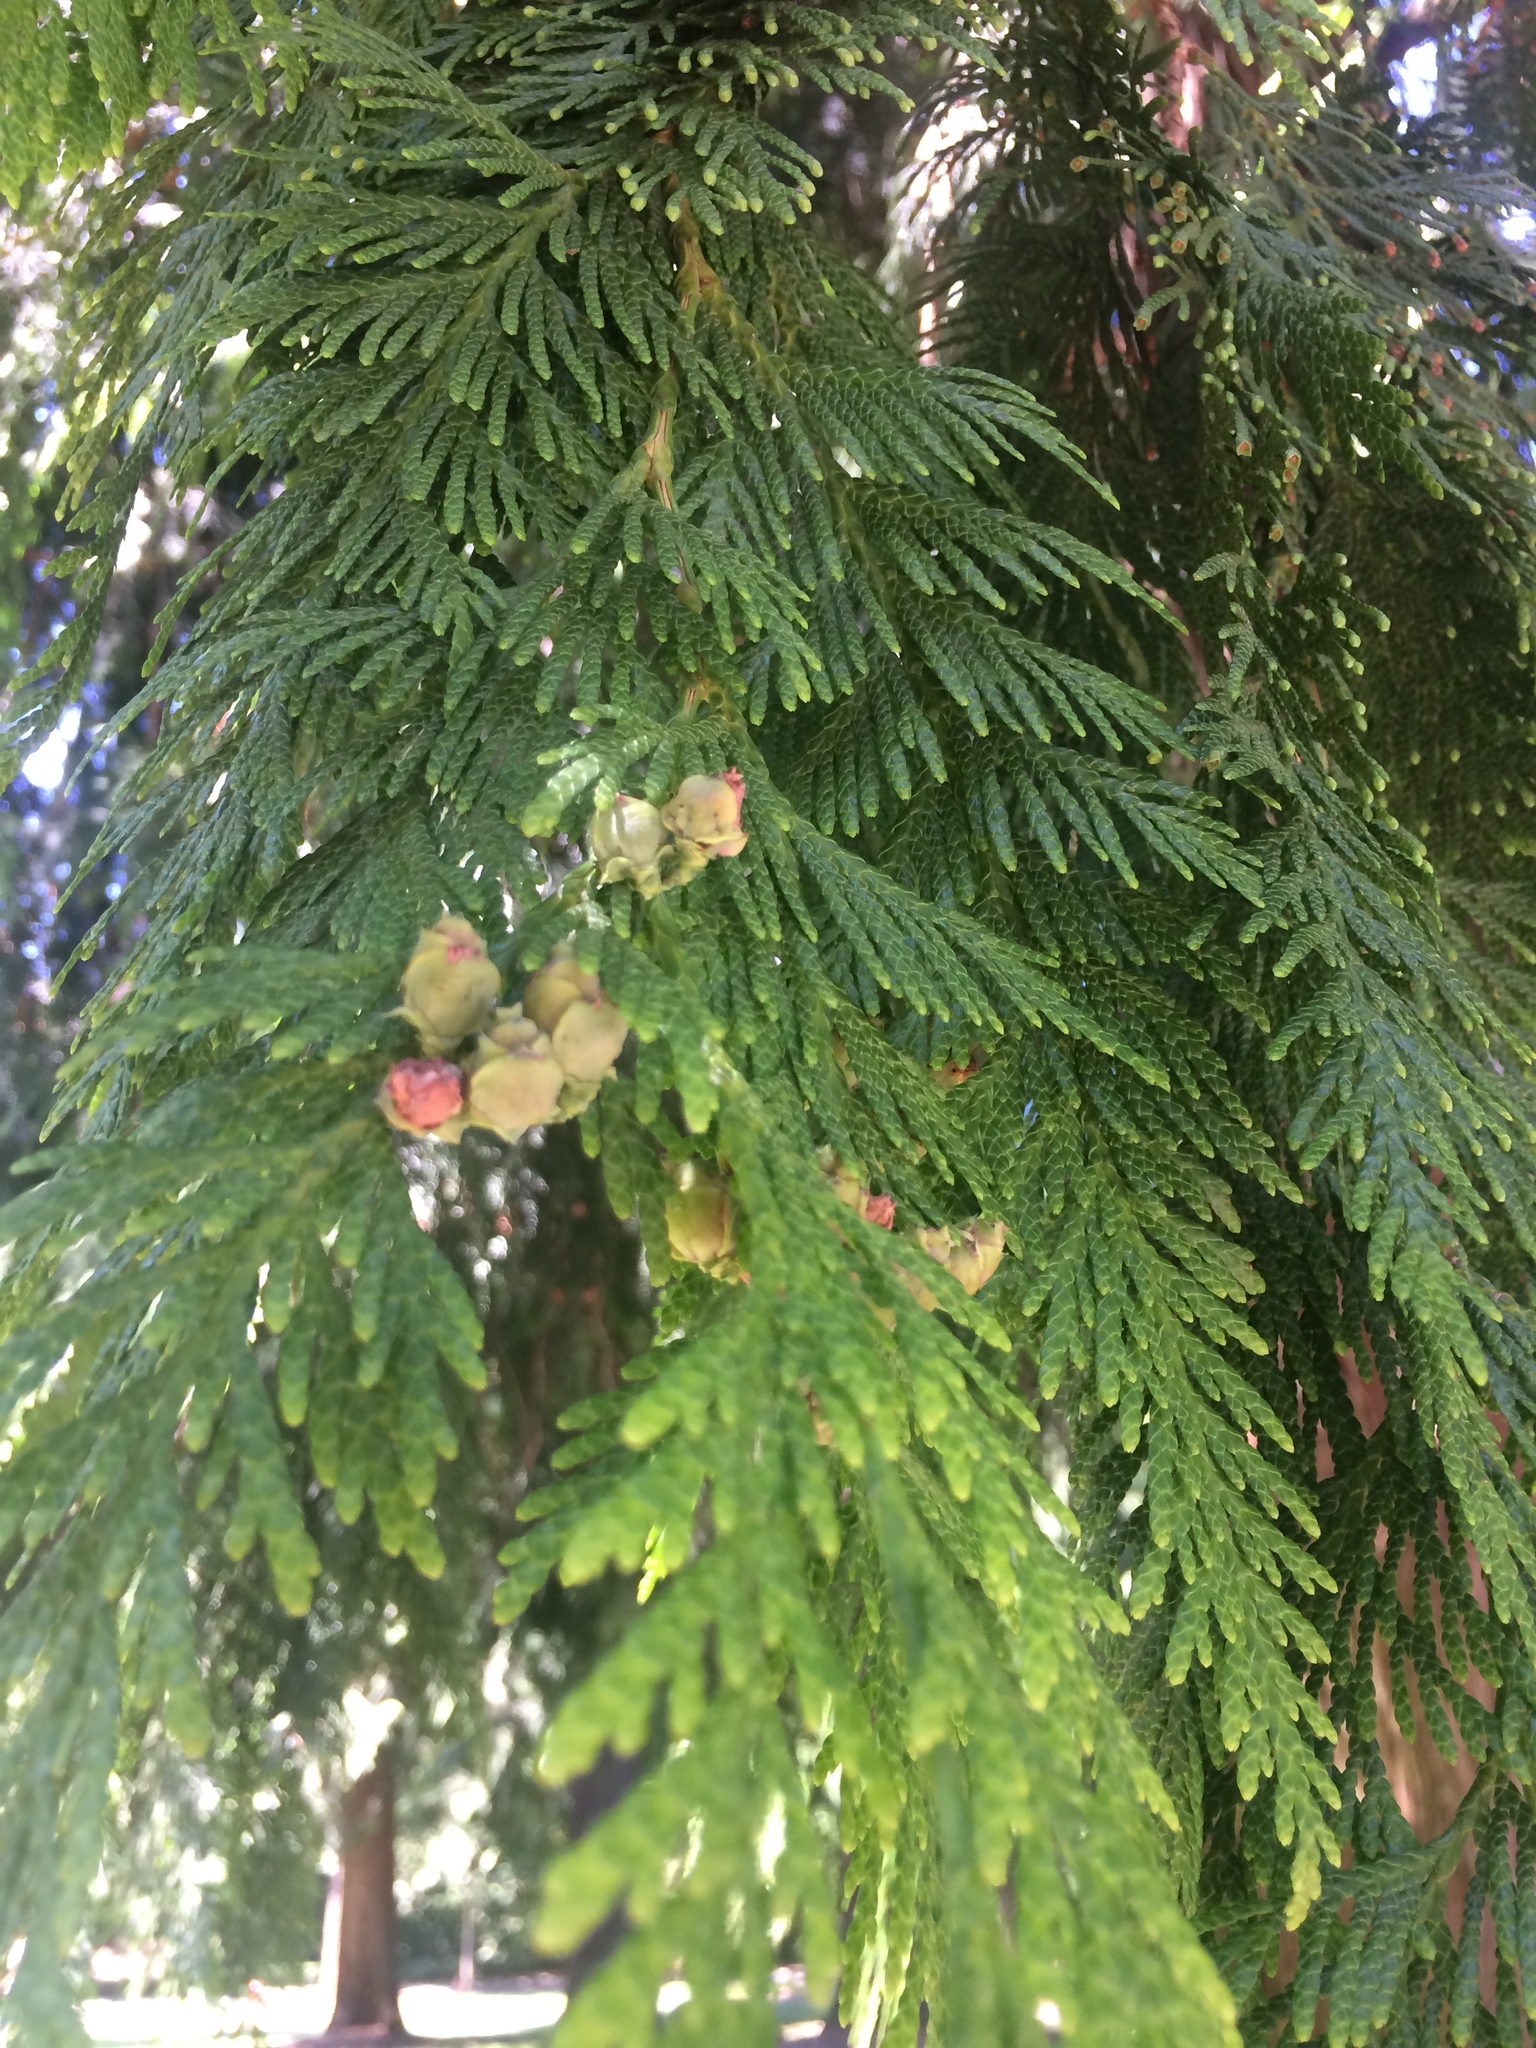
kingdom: Plantae
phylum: Tracheophyta
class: Pinopsida
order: Pinales
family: Cupressaceae
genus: Thuja
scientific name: Thuja plicata
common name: Western red-cedar
